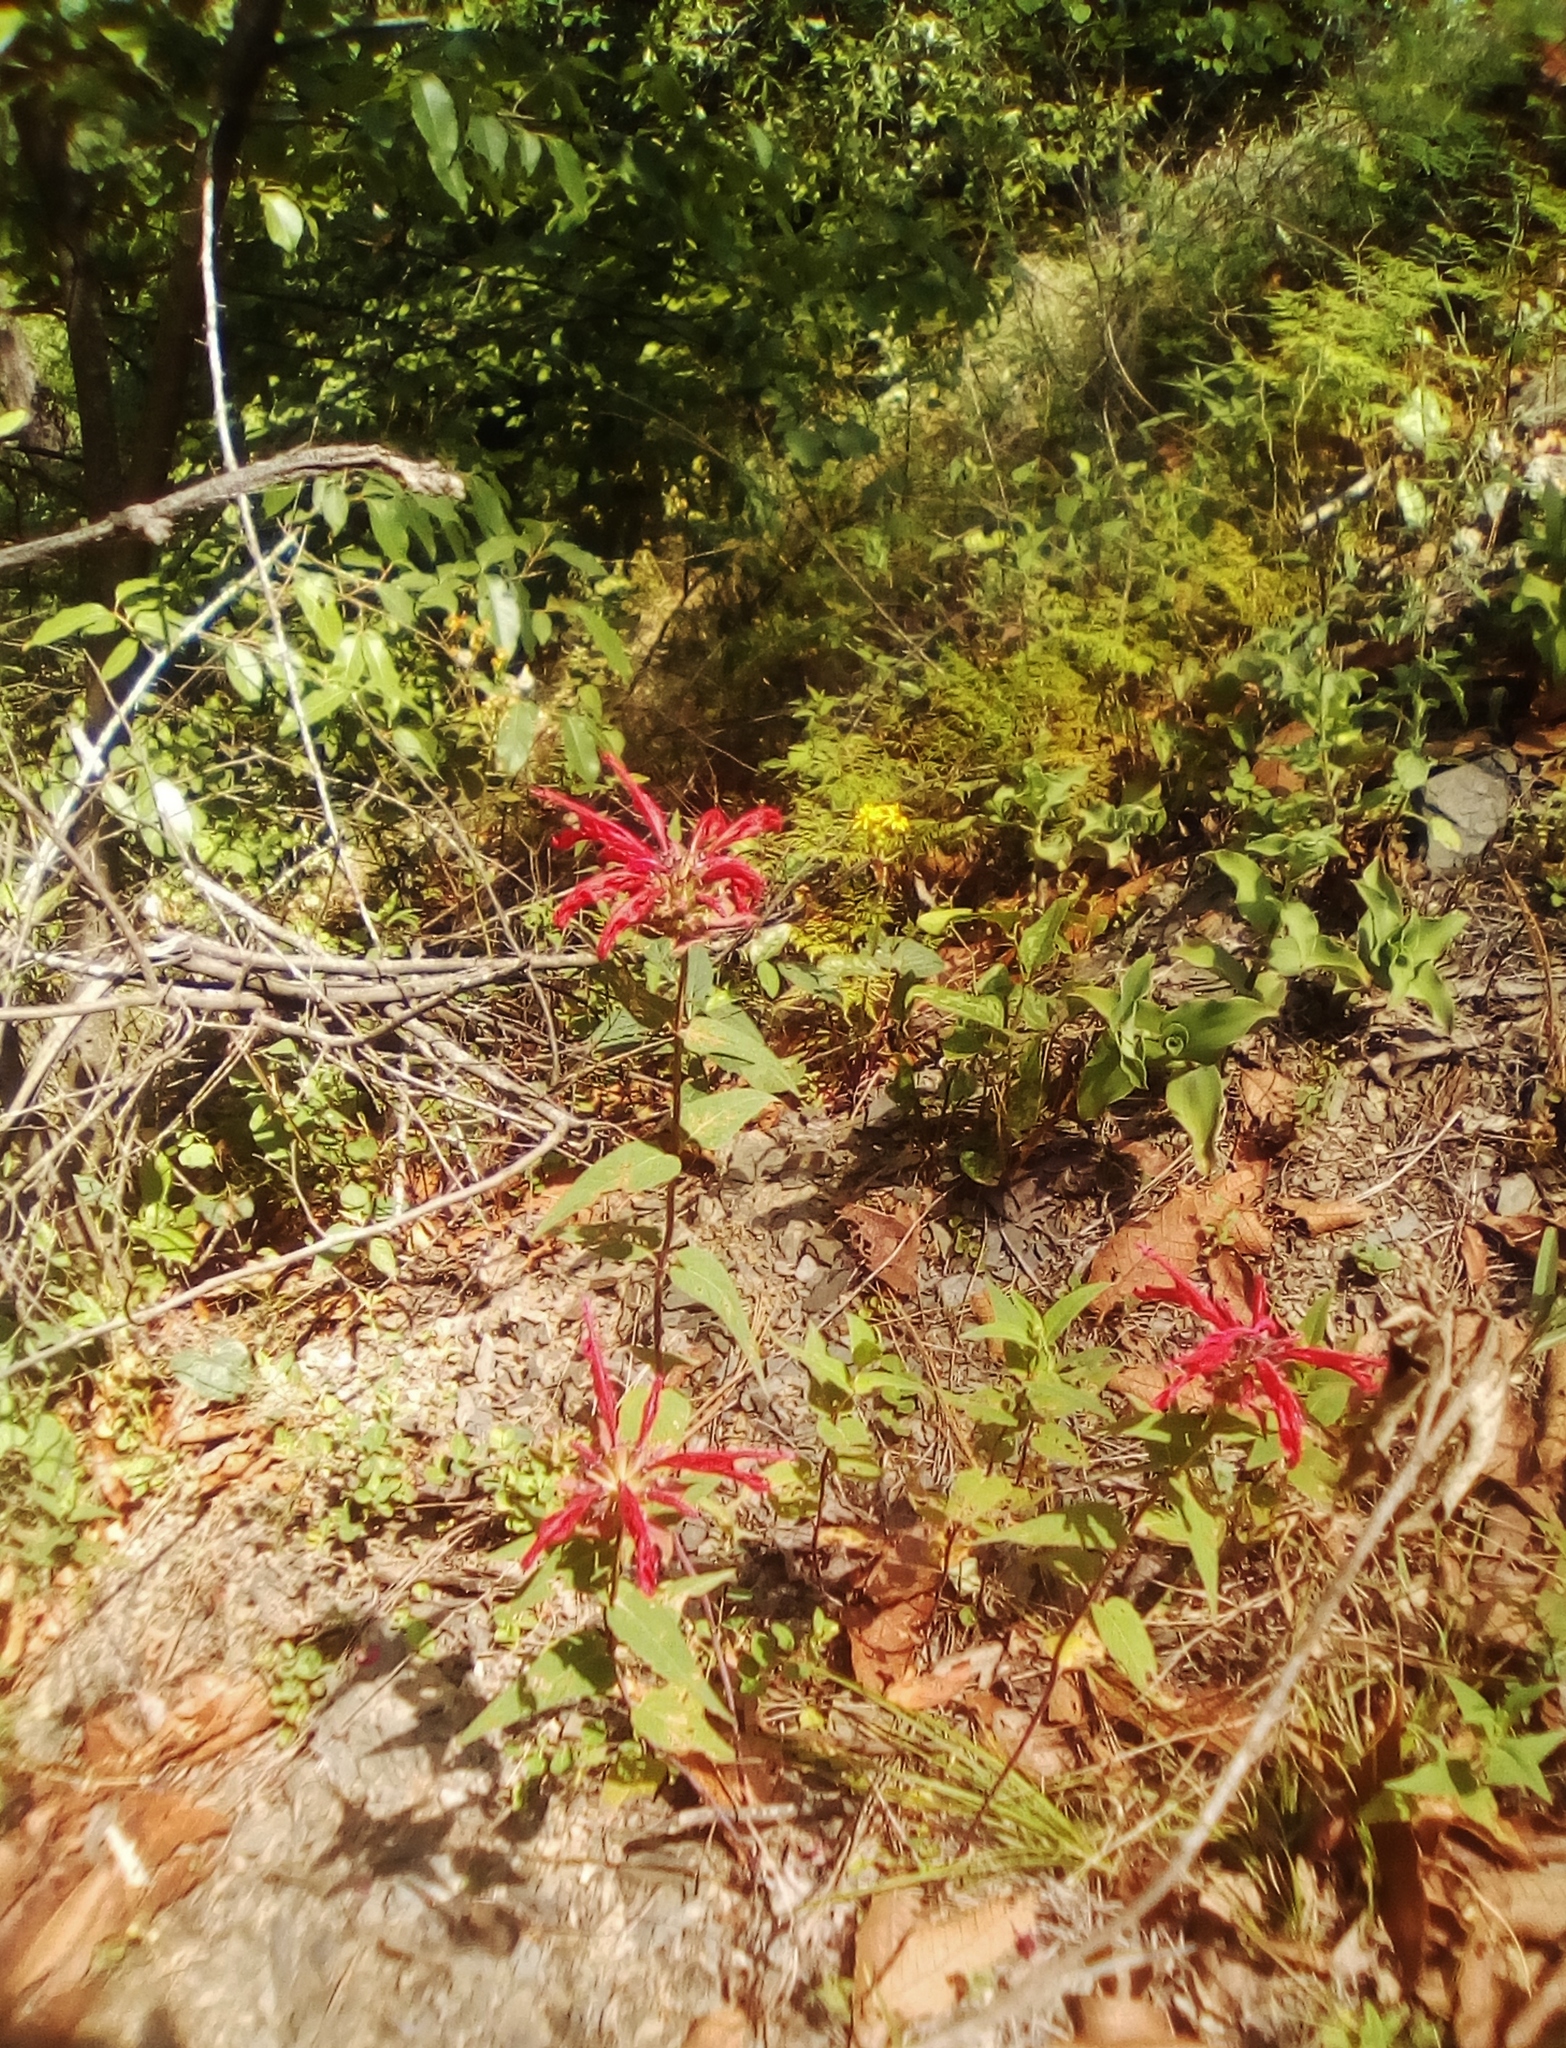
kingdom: Plantae
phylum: Tracheophyta
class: Magnoliopsida
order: Lamiales
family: Lamiaceae
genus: Monarda
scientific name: Monarda pringlei
